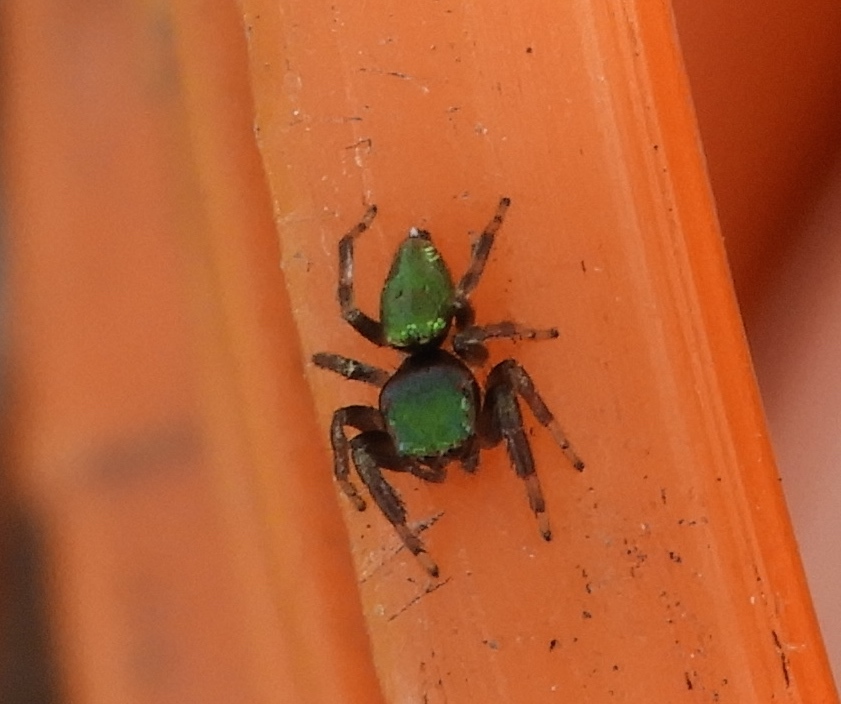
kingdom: Animalia
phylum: Arthropoda
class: Arachnida
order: Araneae
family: Salticidae
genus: Messua
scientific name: Messua limbata
